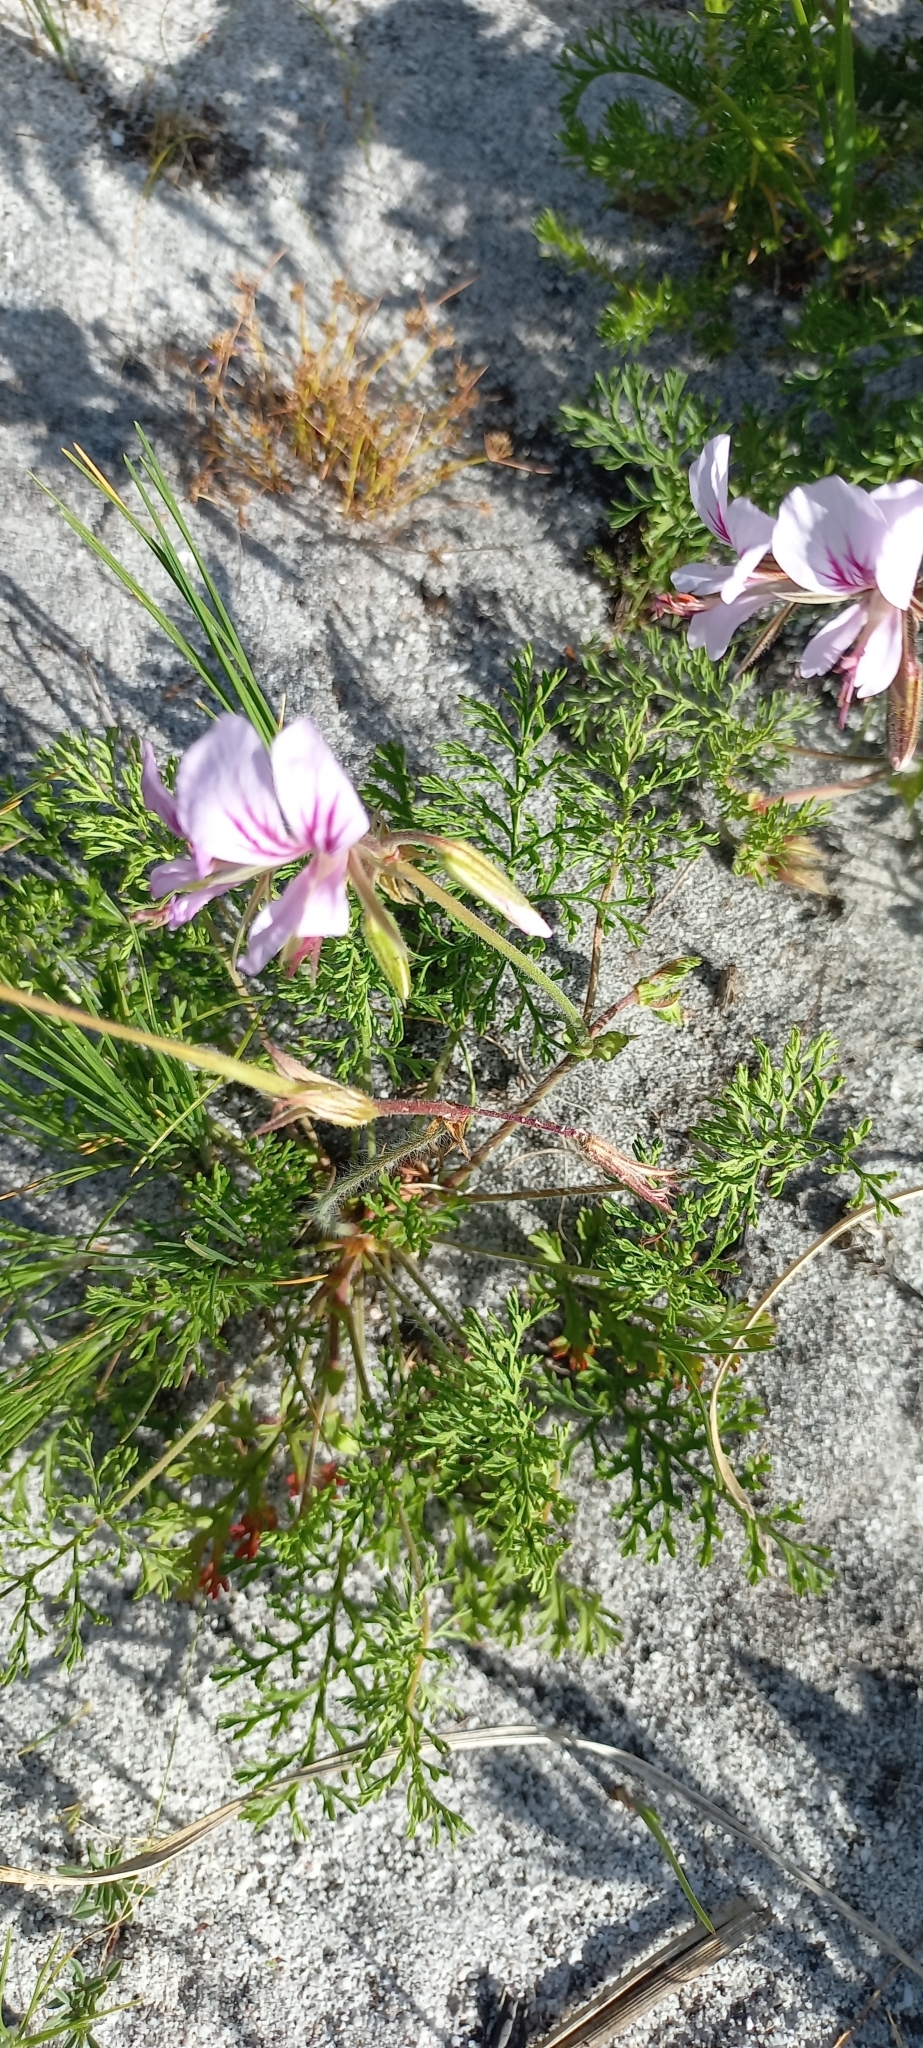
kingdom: Plantae
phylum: Tracheophyta
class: Magnoliopsida
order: Geraniales
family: Geraniaceae
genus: Pelargonium
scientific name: Pelargonium myrrhifolium
